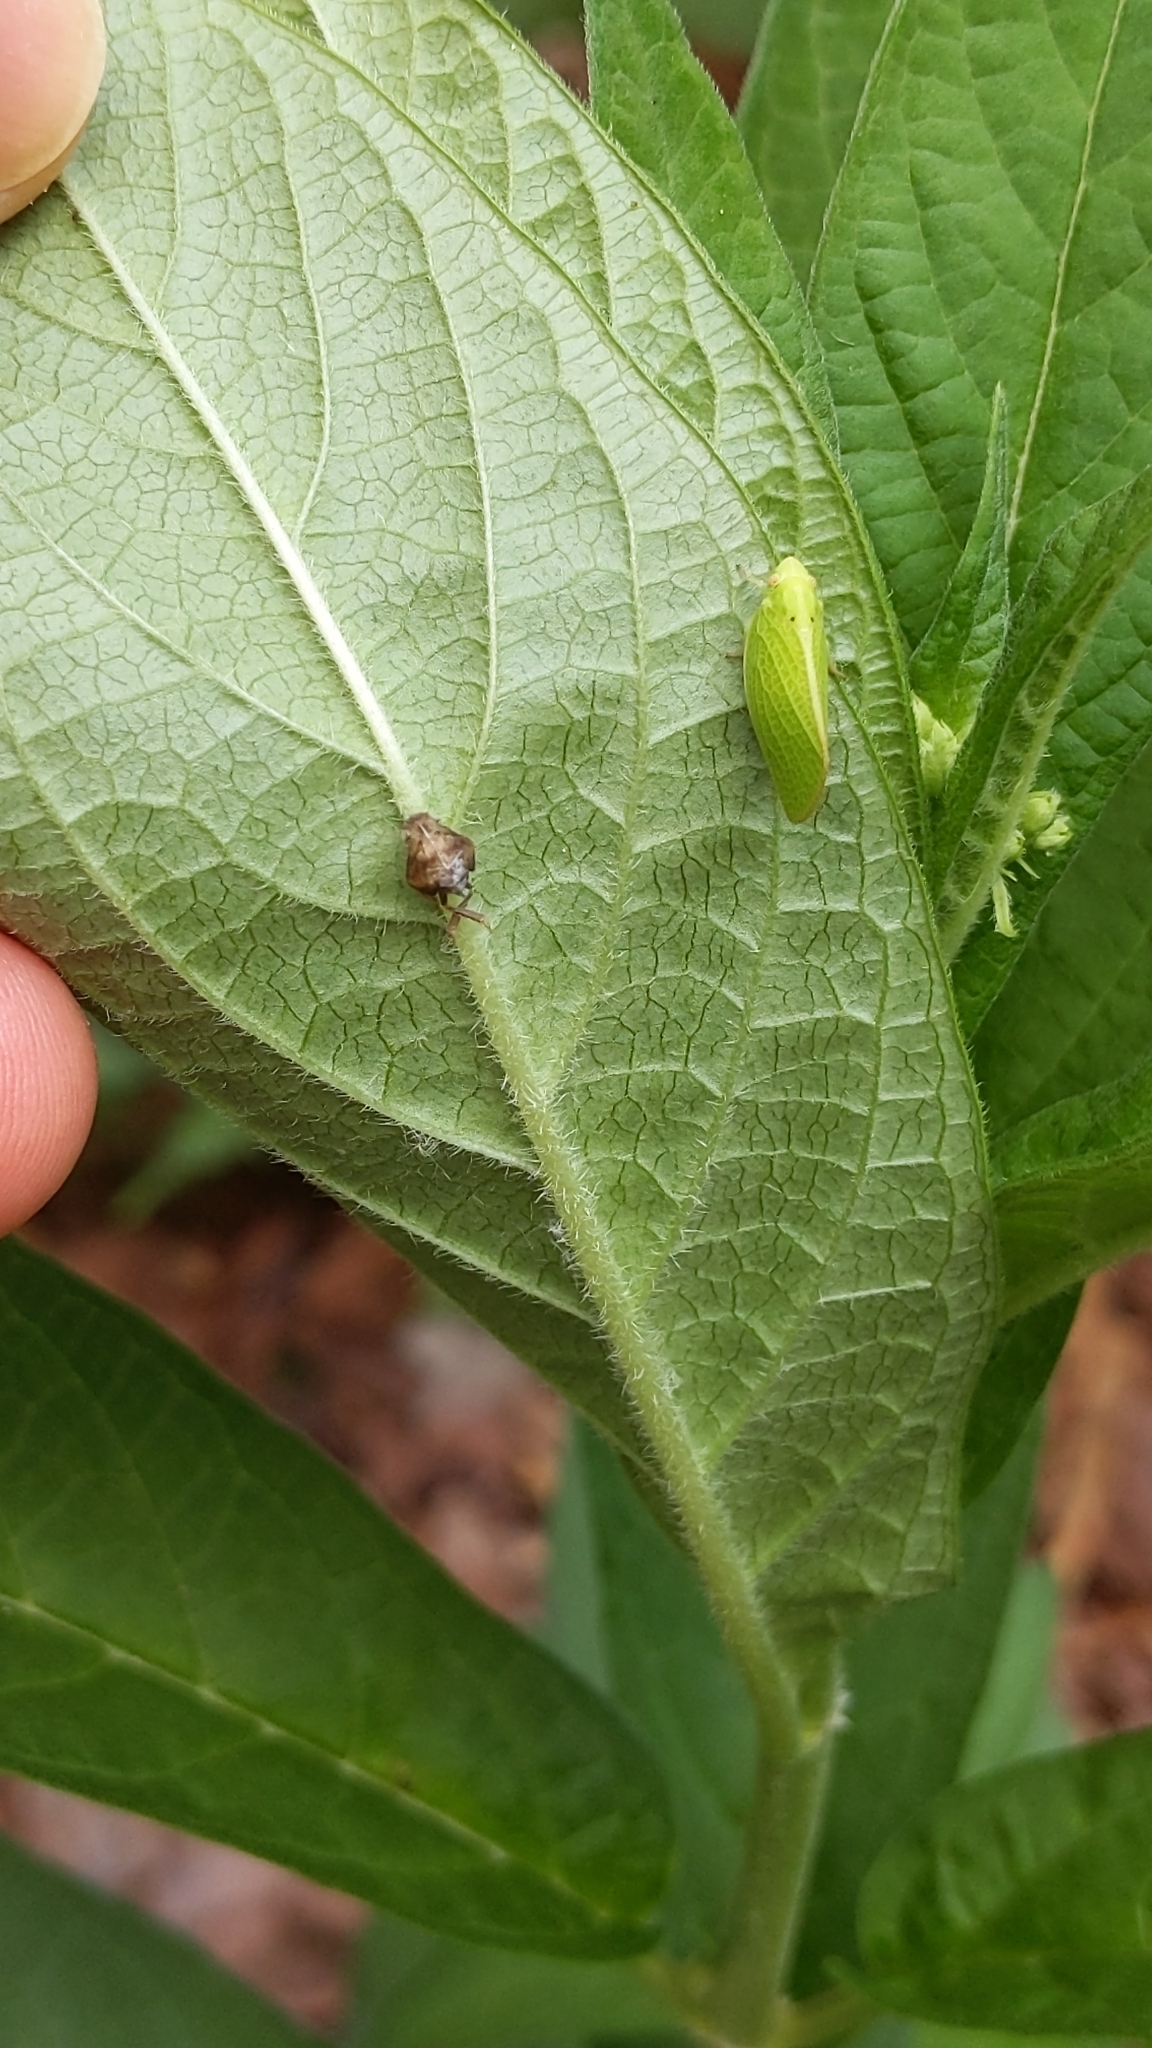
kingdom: Animalia
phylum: Arthropoda
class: Insecta
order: Hemiptera
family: Acanaloniidae
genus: Acanalonia
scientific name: Acanalonia conica
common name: Green cone-headed planthopper
